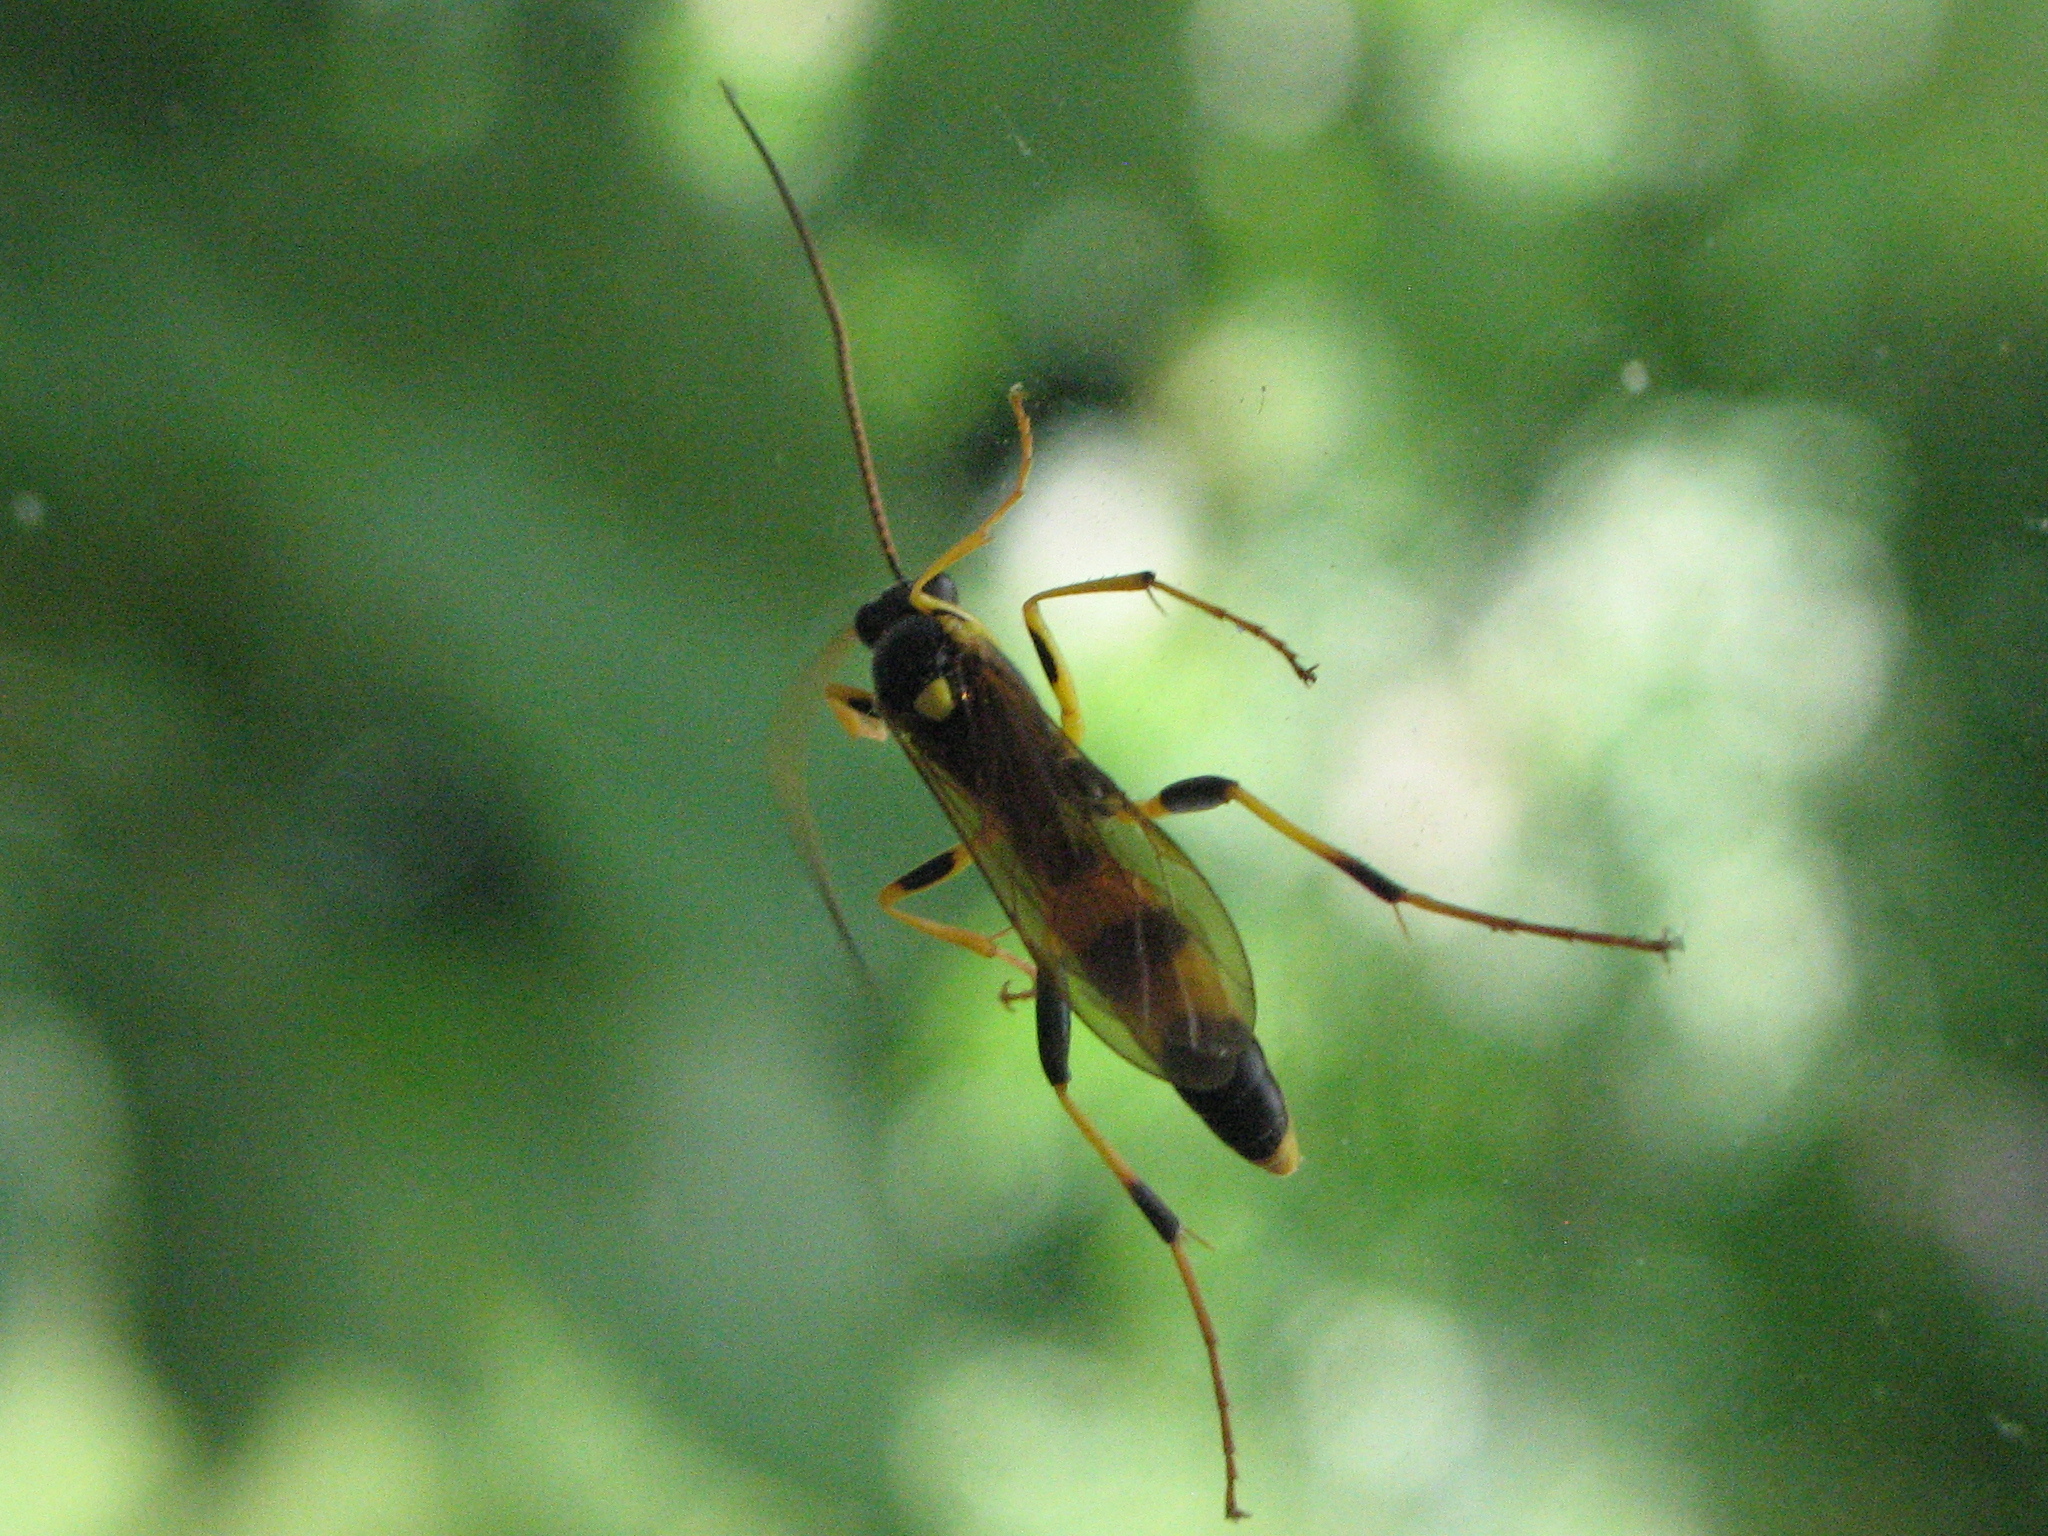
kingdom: Animalia
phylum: Arthropoda
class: Insecta
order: Hymenoptera
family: Ichneumonidae
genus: Amblyteles
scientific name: Amblyteles armatorius
